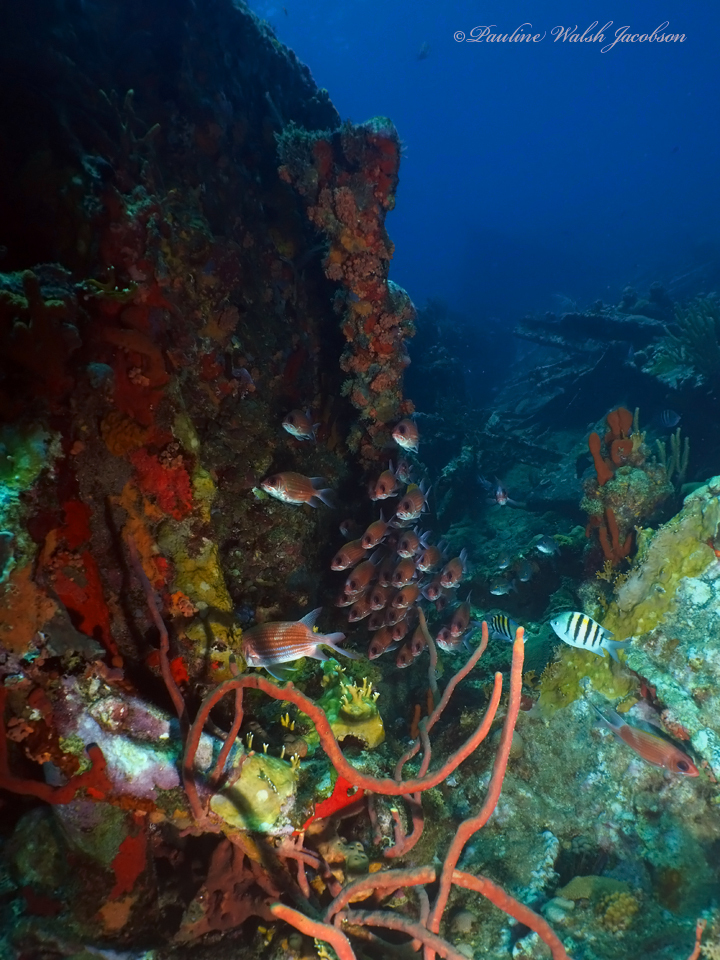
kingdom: Animalia
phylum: Chordata
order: Perciformes
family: Pomacentridae
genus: Abudefduf
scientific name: Abudefduf saxatilis
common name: Sergeant major
